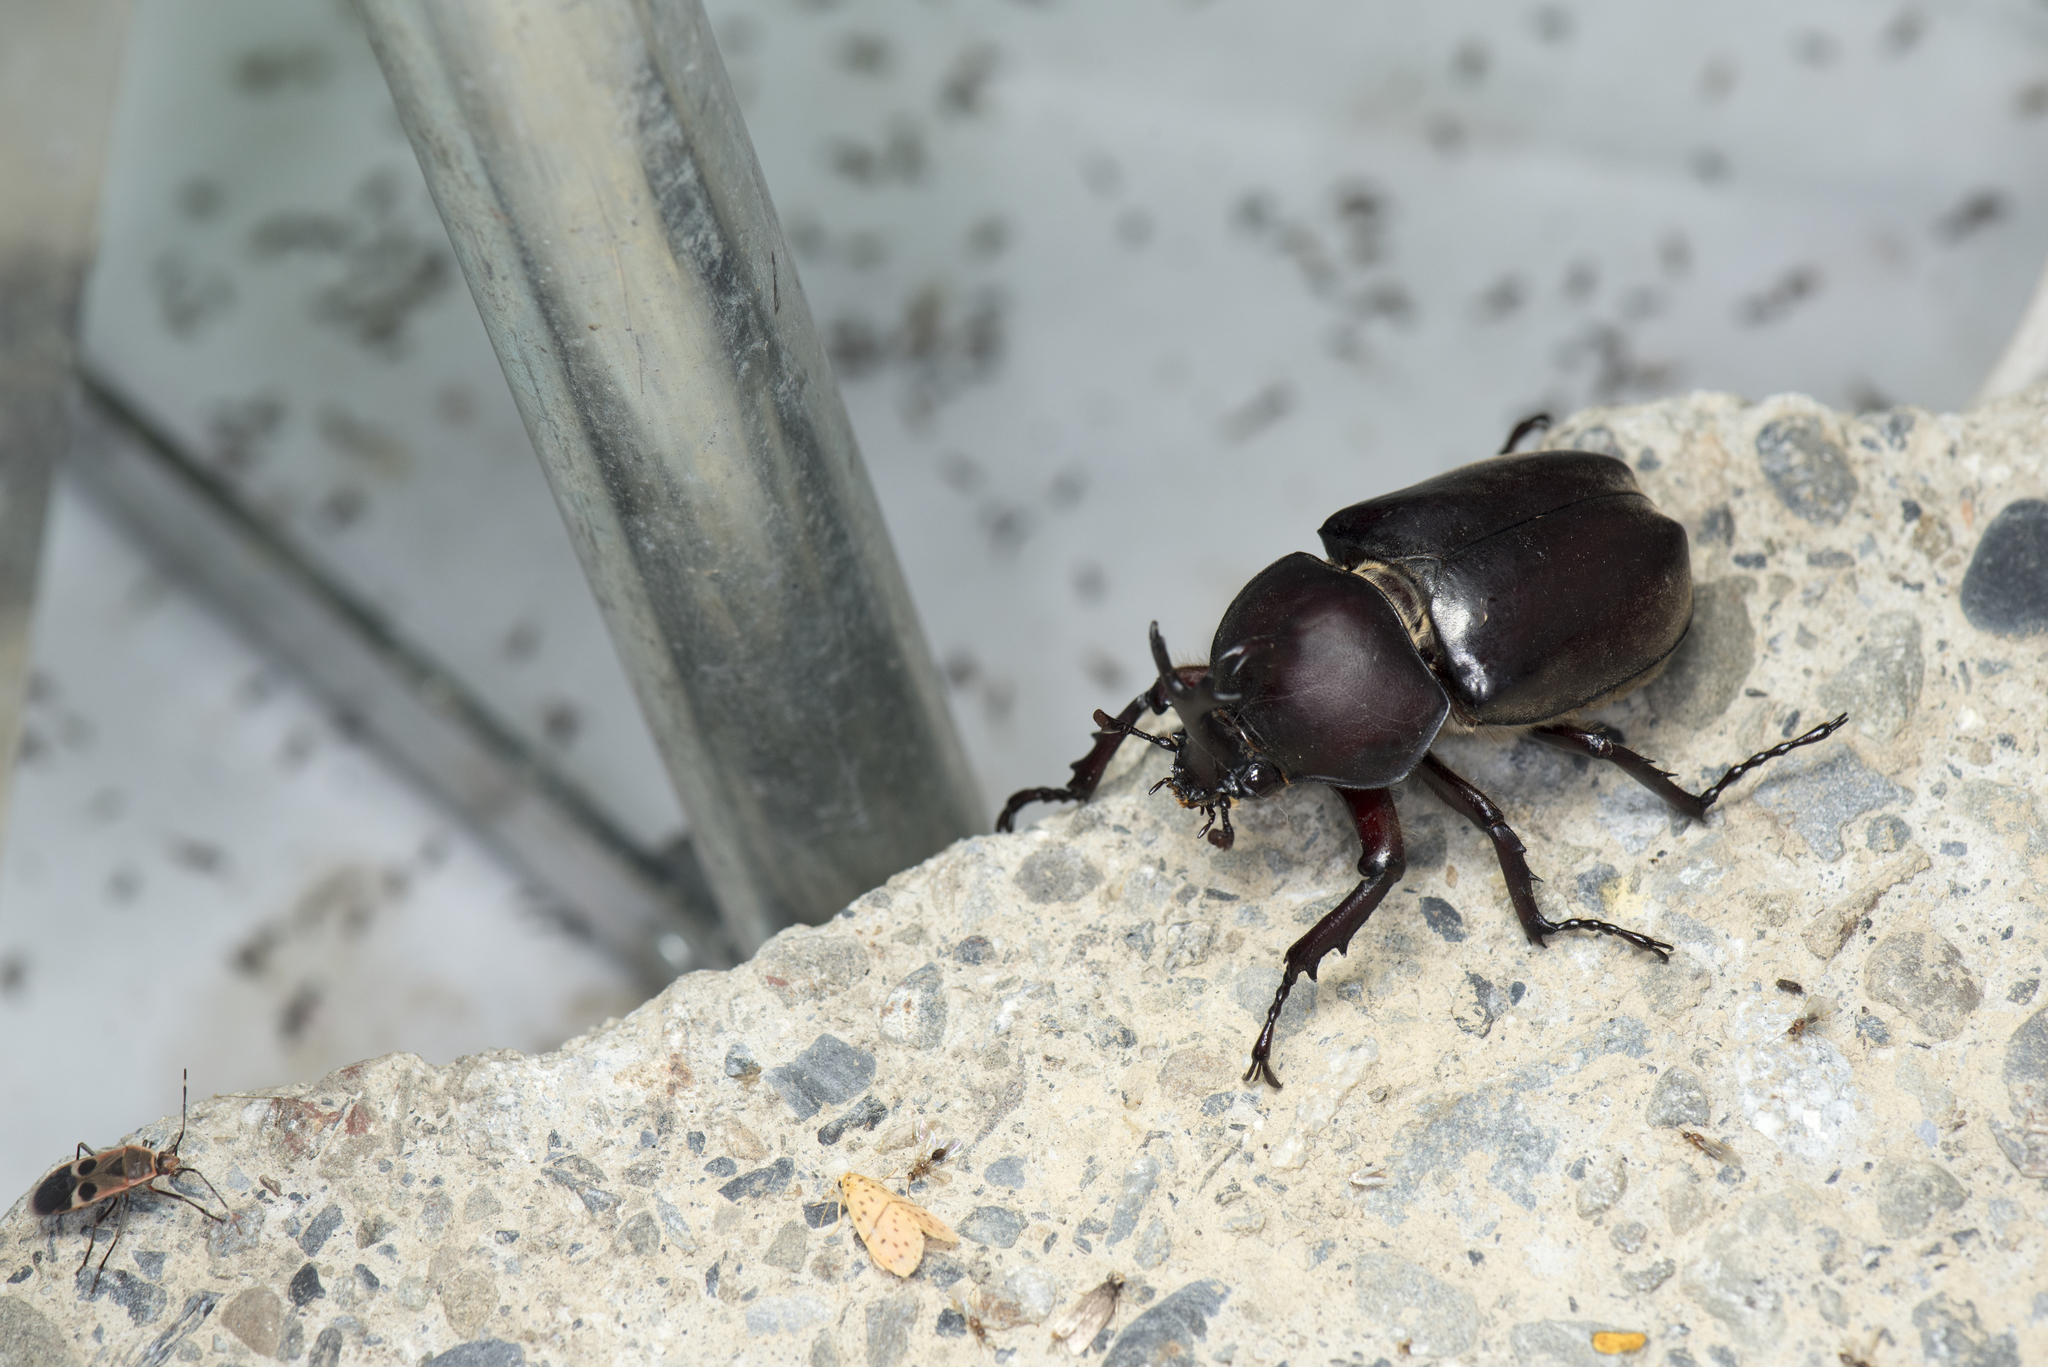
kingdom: Animalia
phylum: Arthropoda
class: Insecta
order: Coleoptera
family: Scarabaeidae
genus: Trypoxylus
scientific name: Trypoxylus dichotomus
